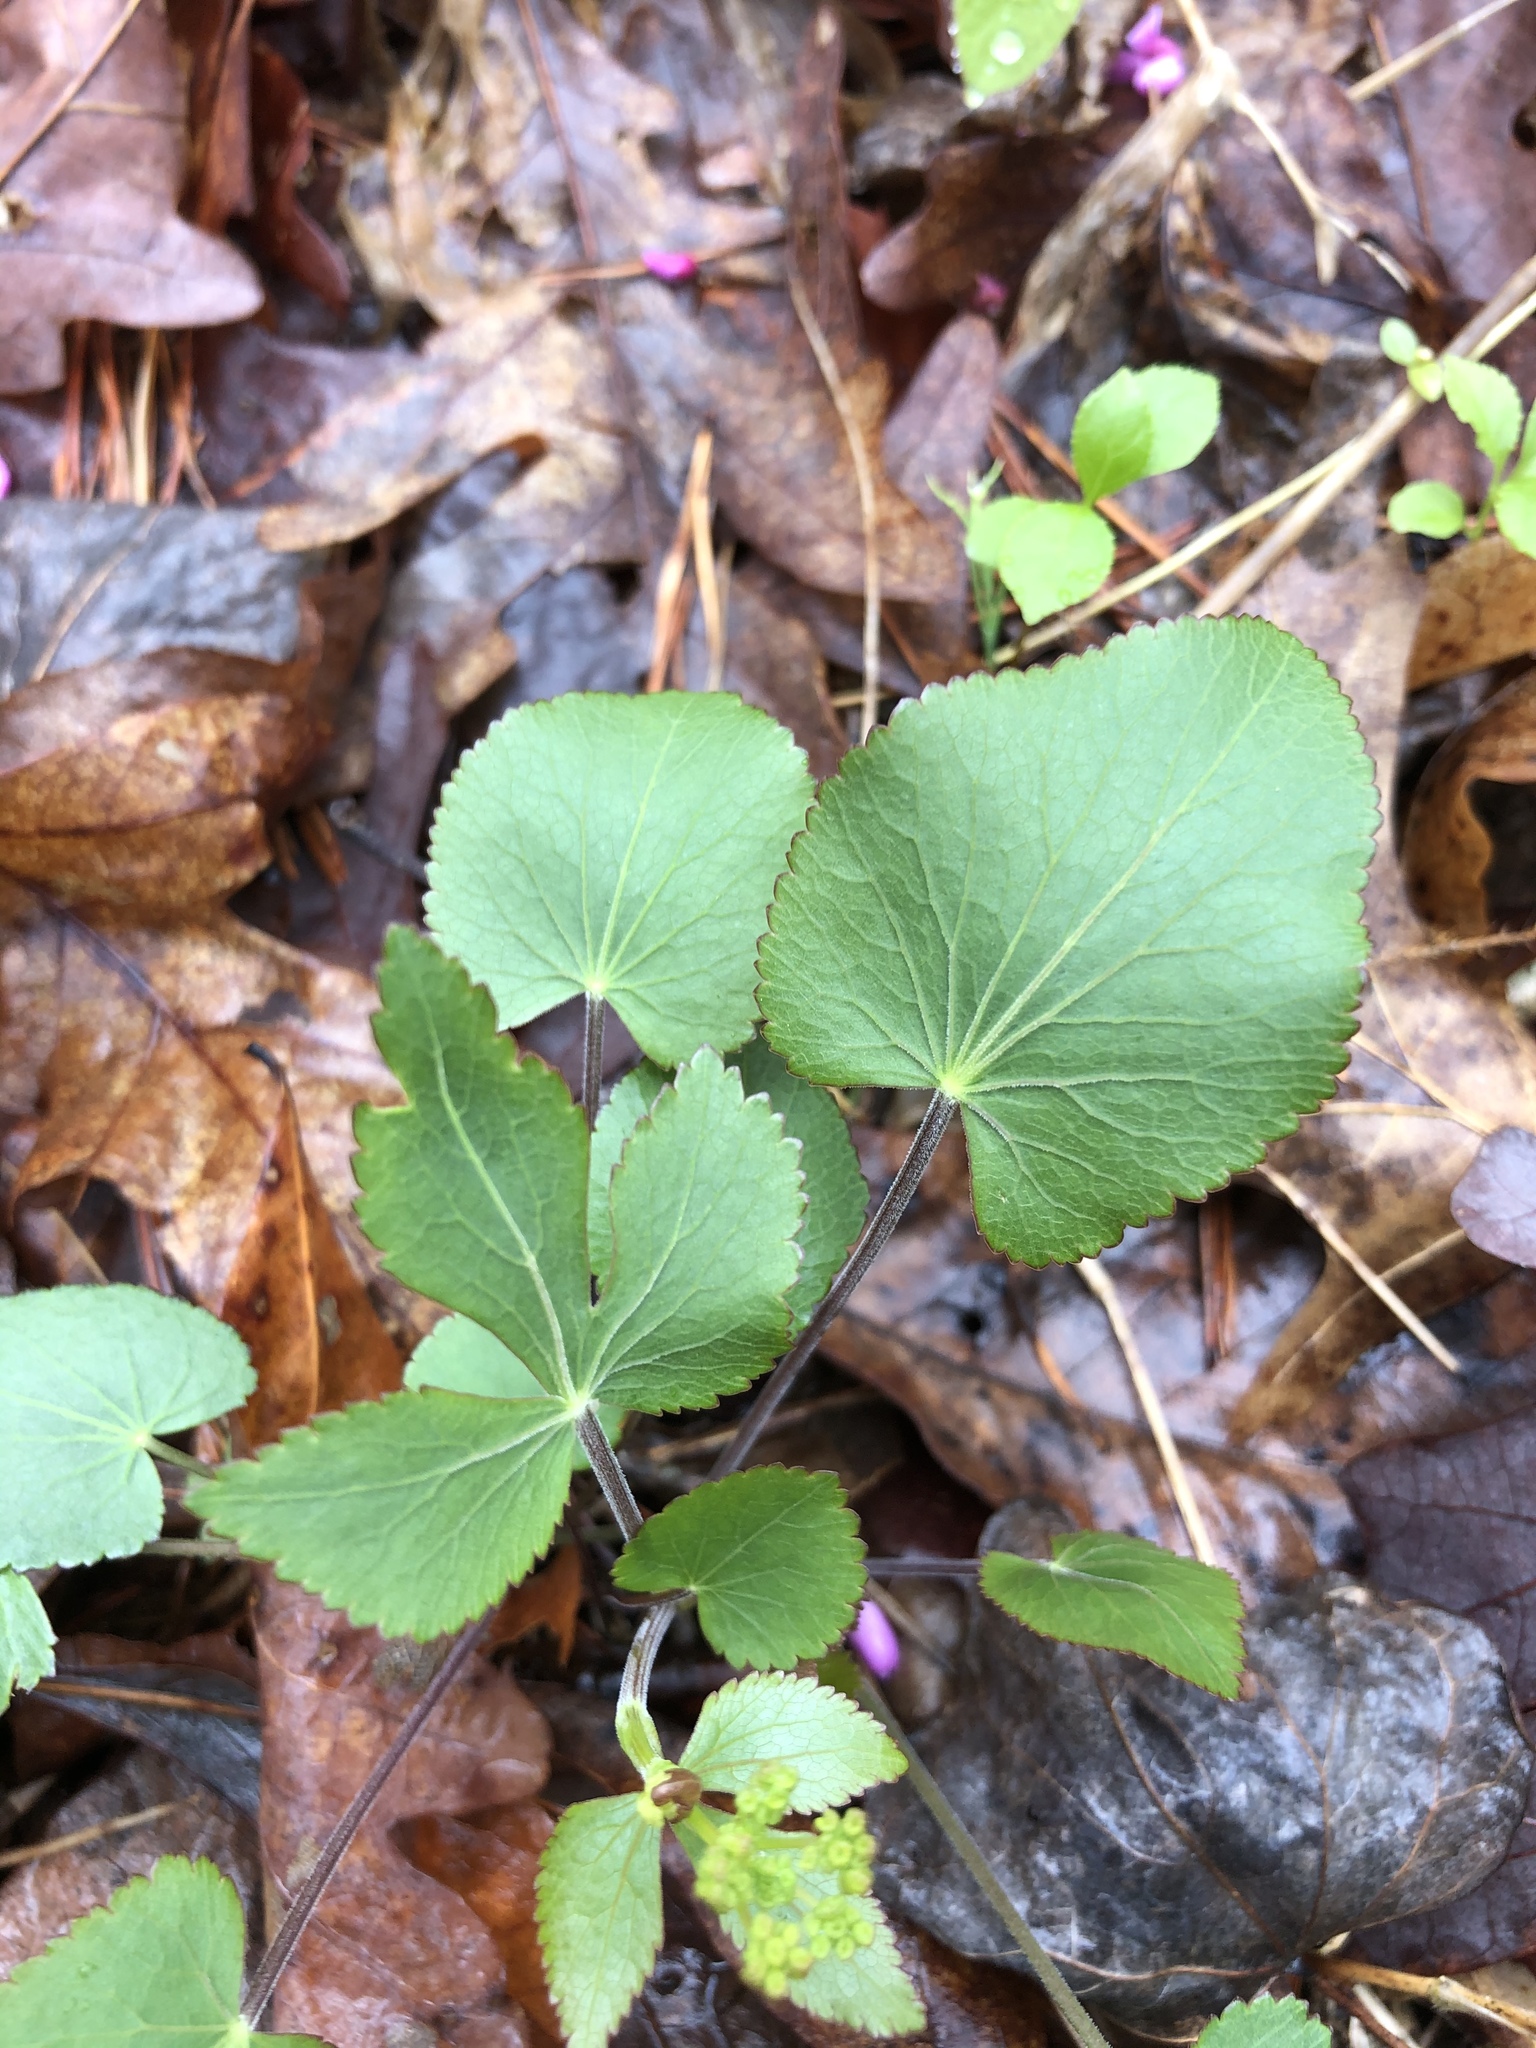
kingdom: Plantae
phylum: Tracheophyta
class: Magnoliopsida
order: Apiales
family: Apiaceae
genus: Zizia
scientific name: Zizia aptera
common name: Heart-leaved alexanders
